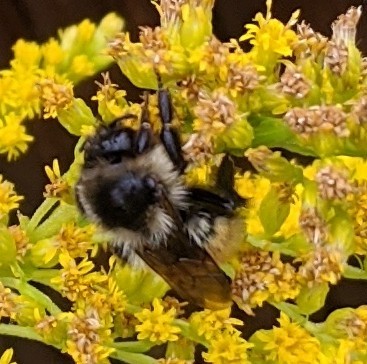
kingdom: Animalia
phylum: Arthropoda
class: Insecta
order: Hymenoptera
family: Apidae
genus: Bombus
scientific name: Bombus ternarius
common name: Tri-colored bumble bee
